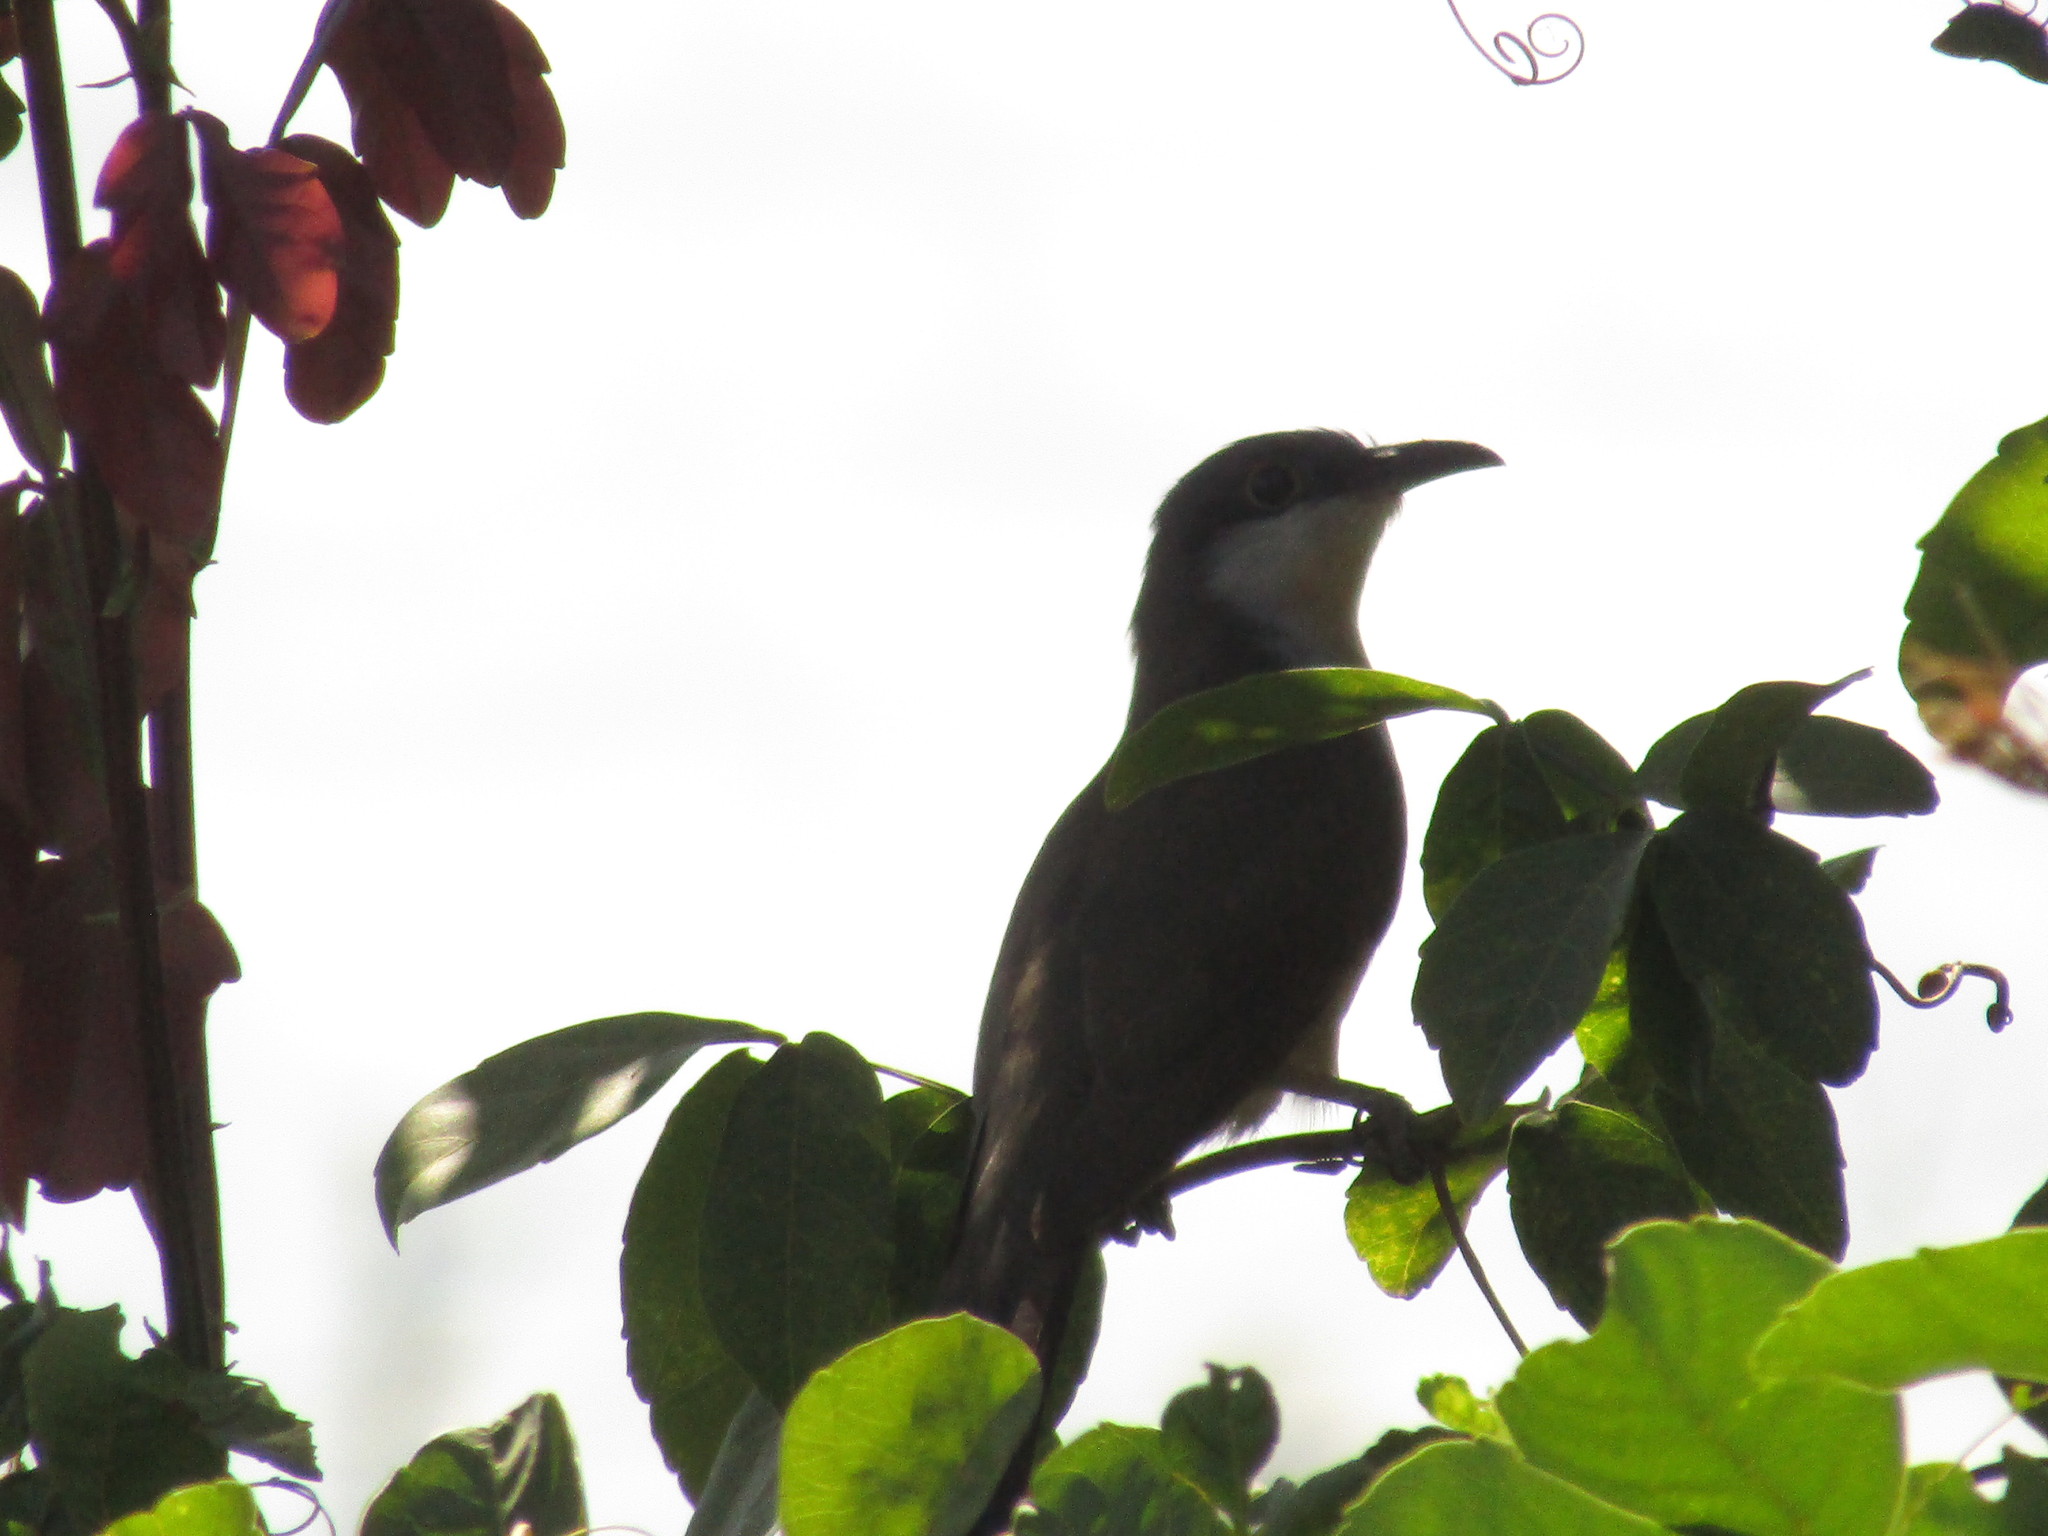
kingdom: Animalia
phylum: Chordata
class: Aves
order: Cuculiformes
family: Cuculidae
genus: Coccyzus
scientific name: Coccyzus melacoryphus
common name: Dark-billed cuckoo
